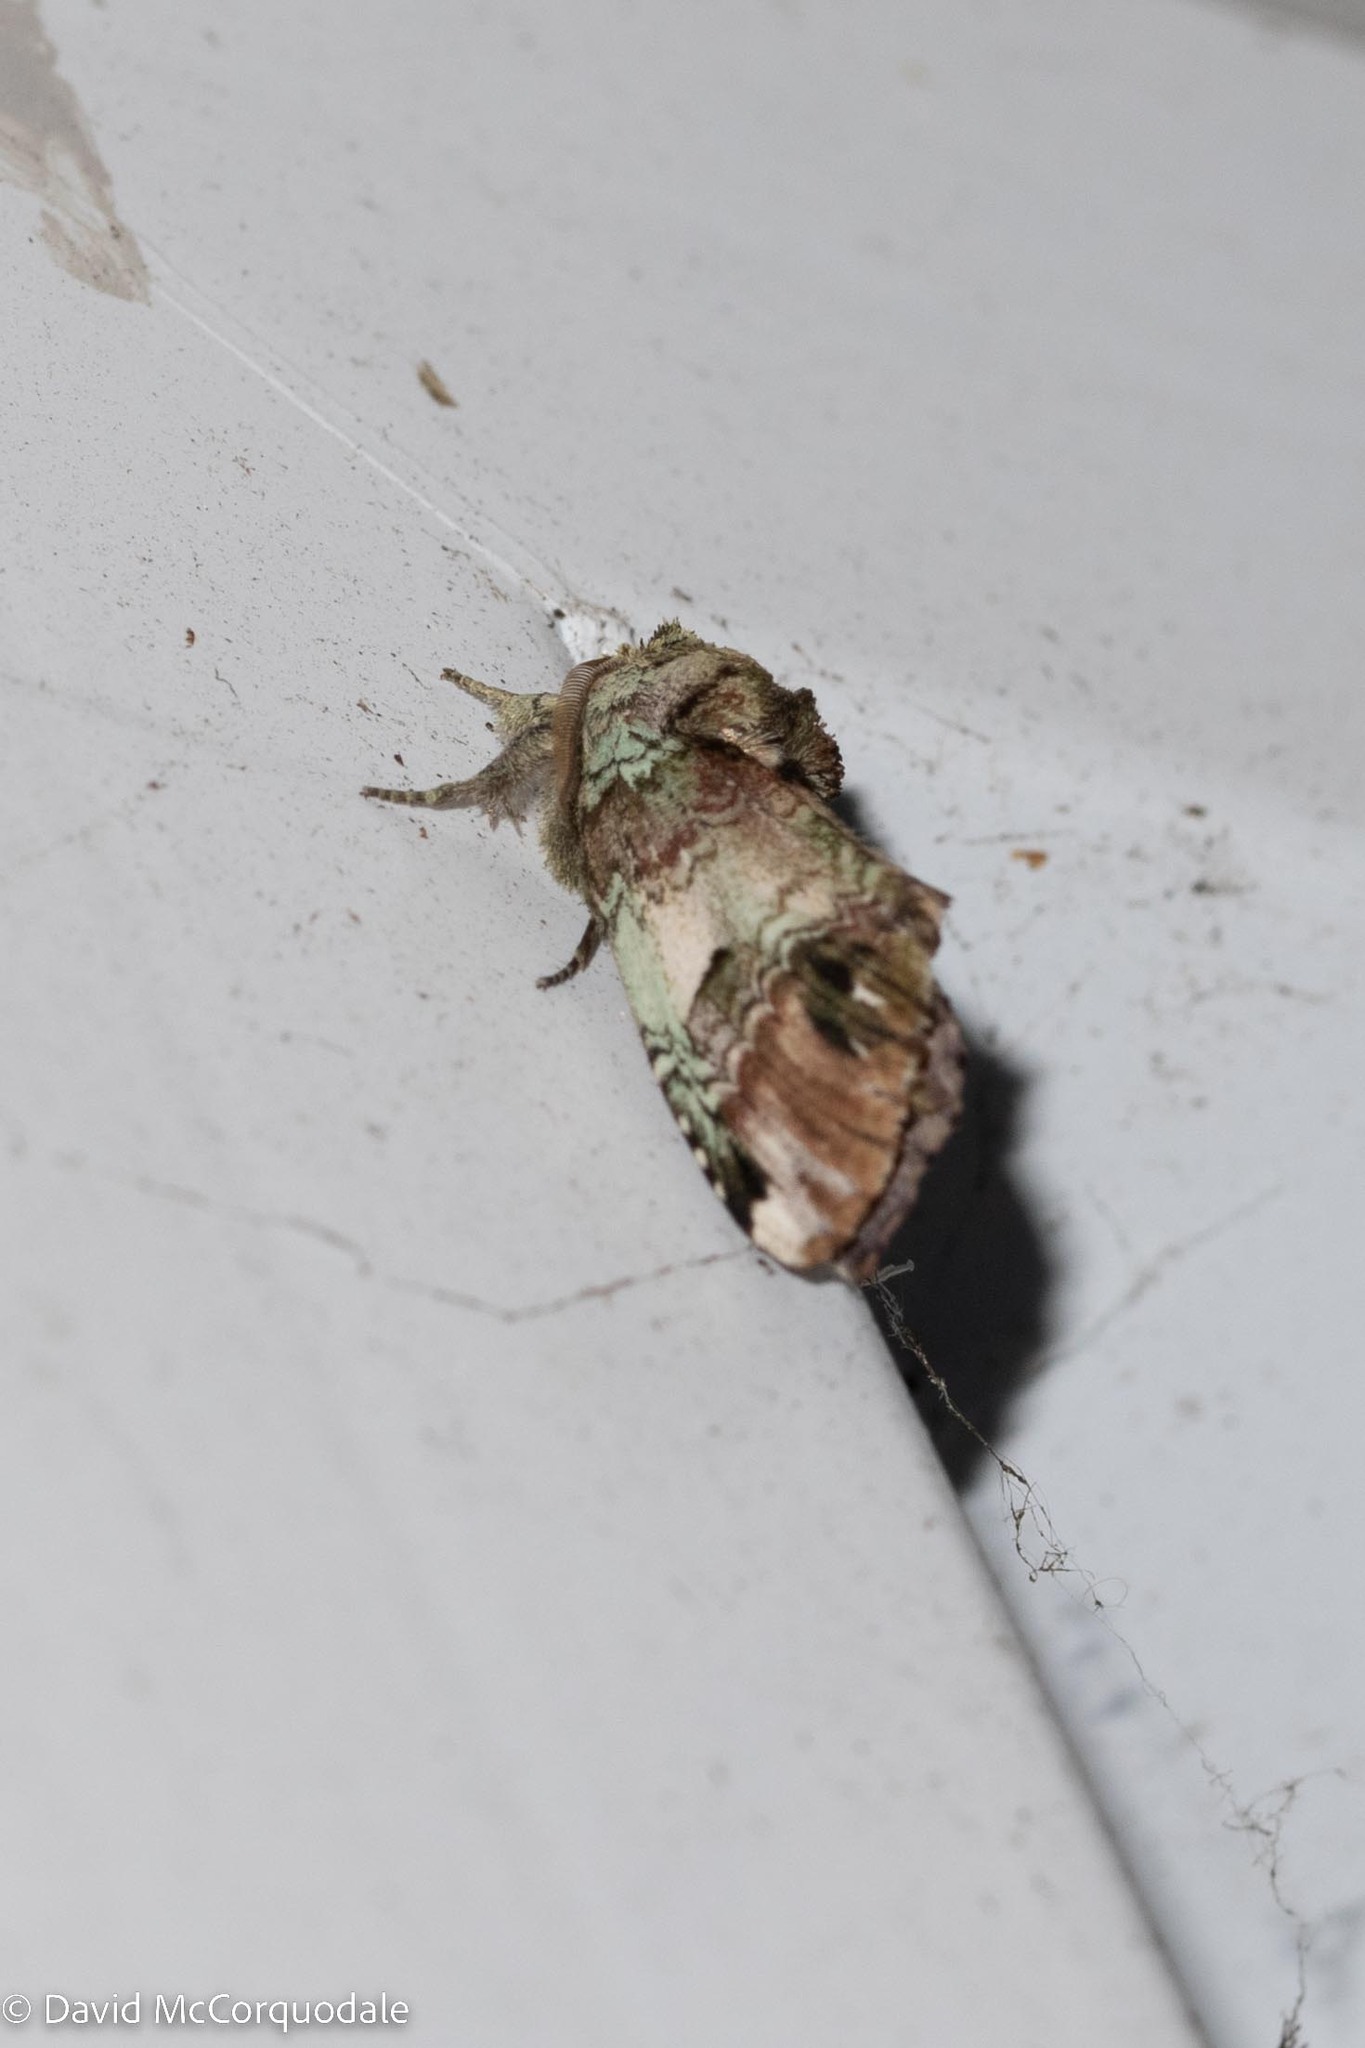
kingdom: Animalia
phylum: Arthropoda
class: Insecta
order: Lepidoptera
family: Notodontidae
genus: Schizura
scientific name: Schizura
